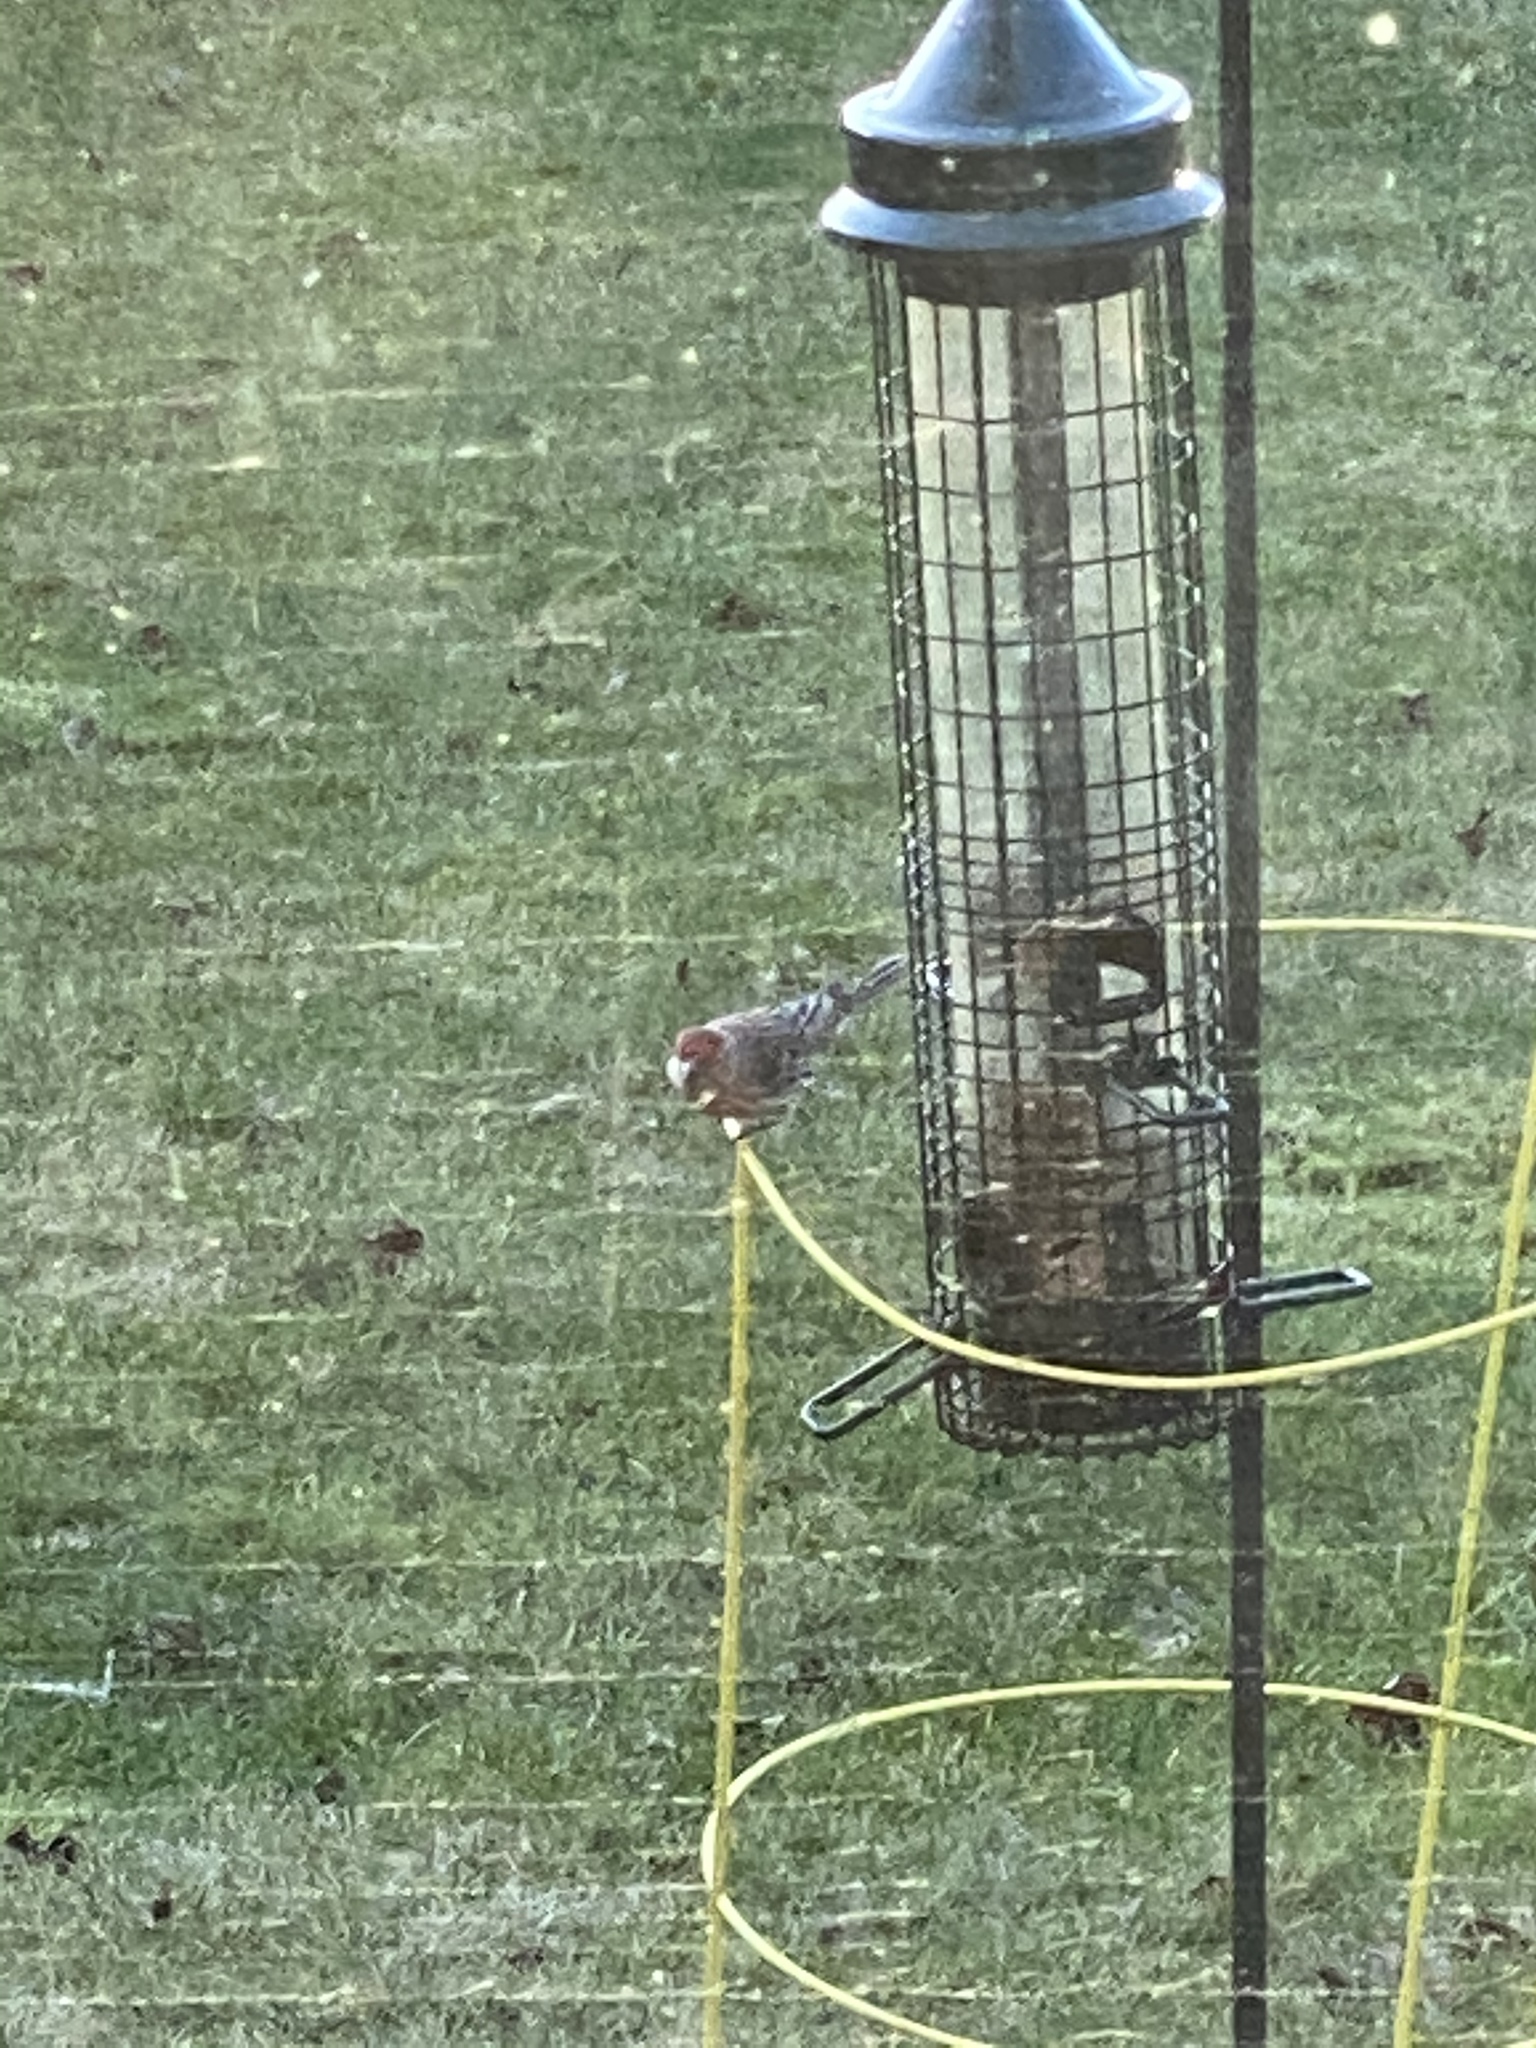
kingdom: Animalia
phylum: Chordata
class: Aves
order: Passeriformes
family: Fringillidae
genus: Haemorhous
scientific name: Haemorhous mexicanus
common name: House finch
